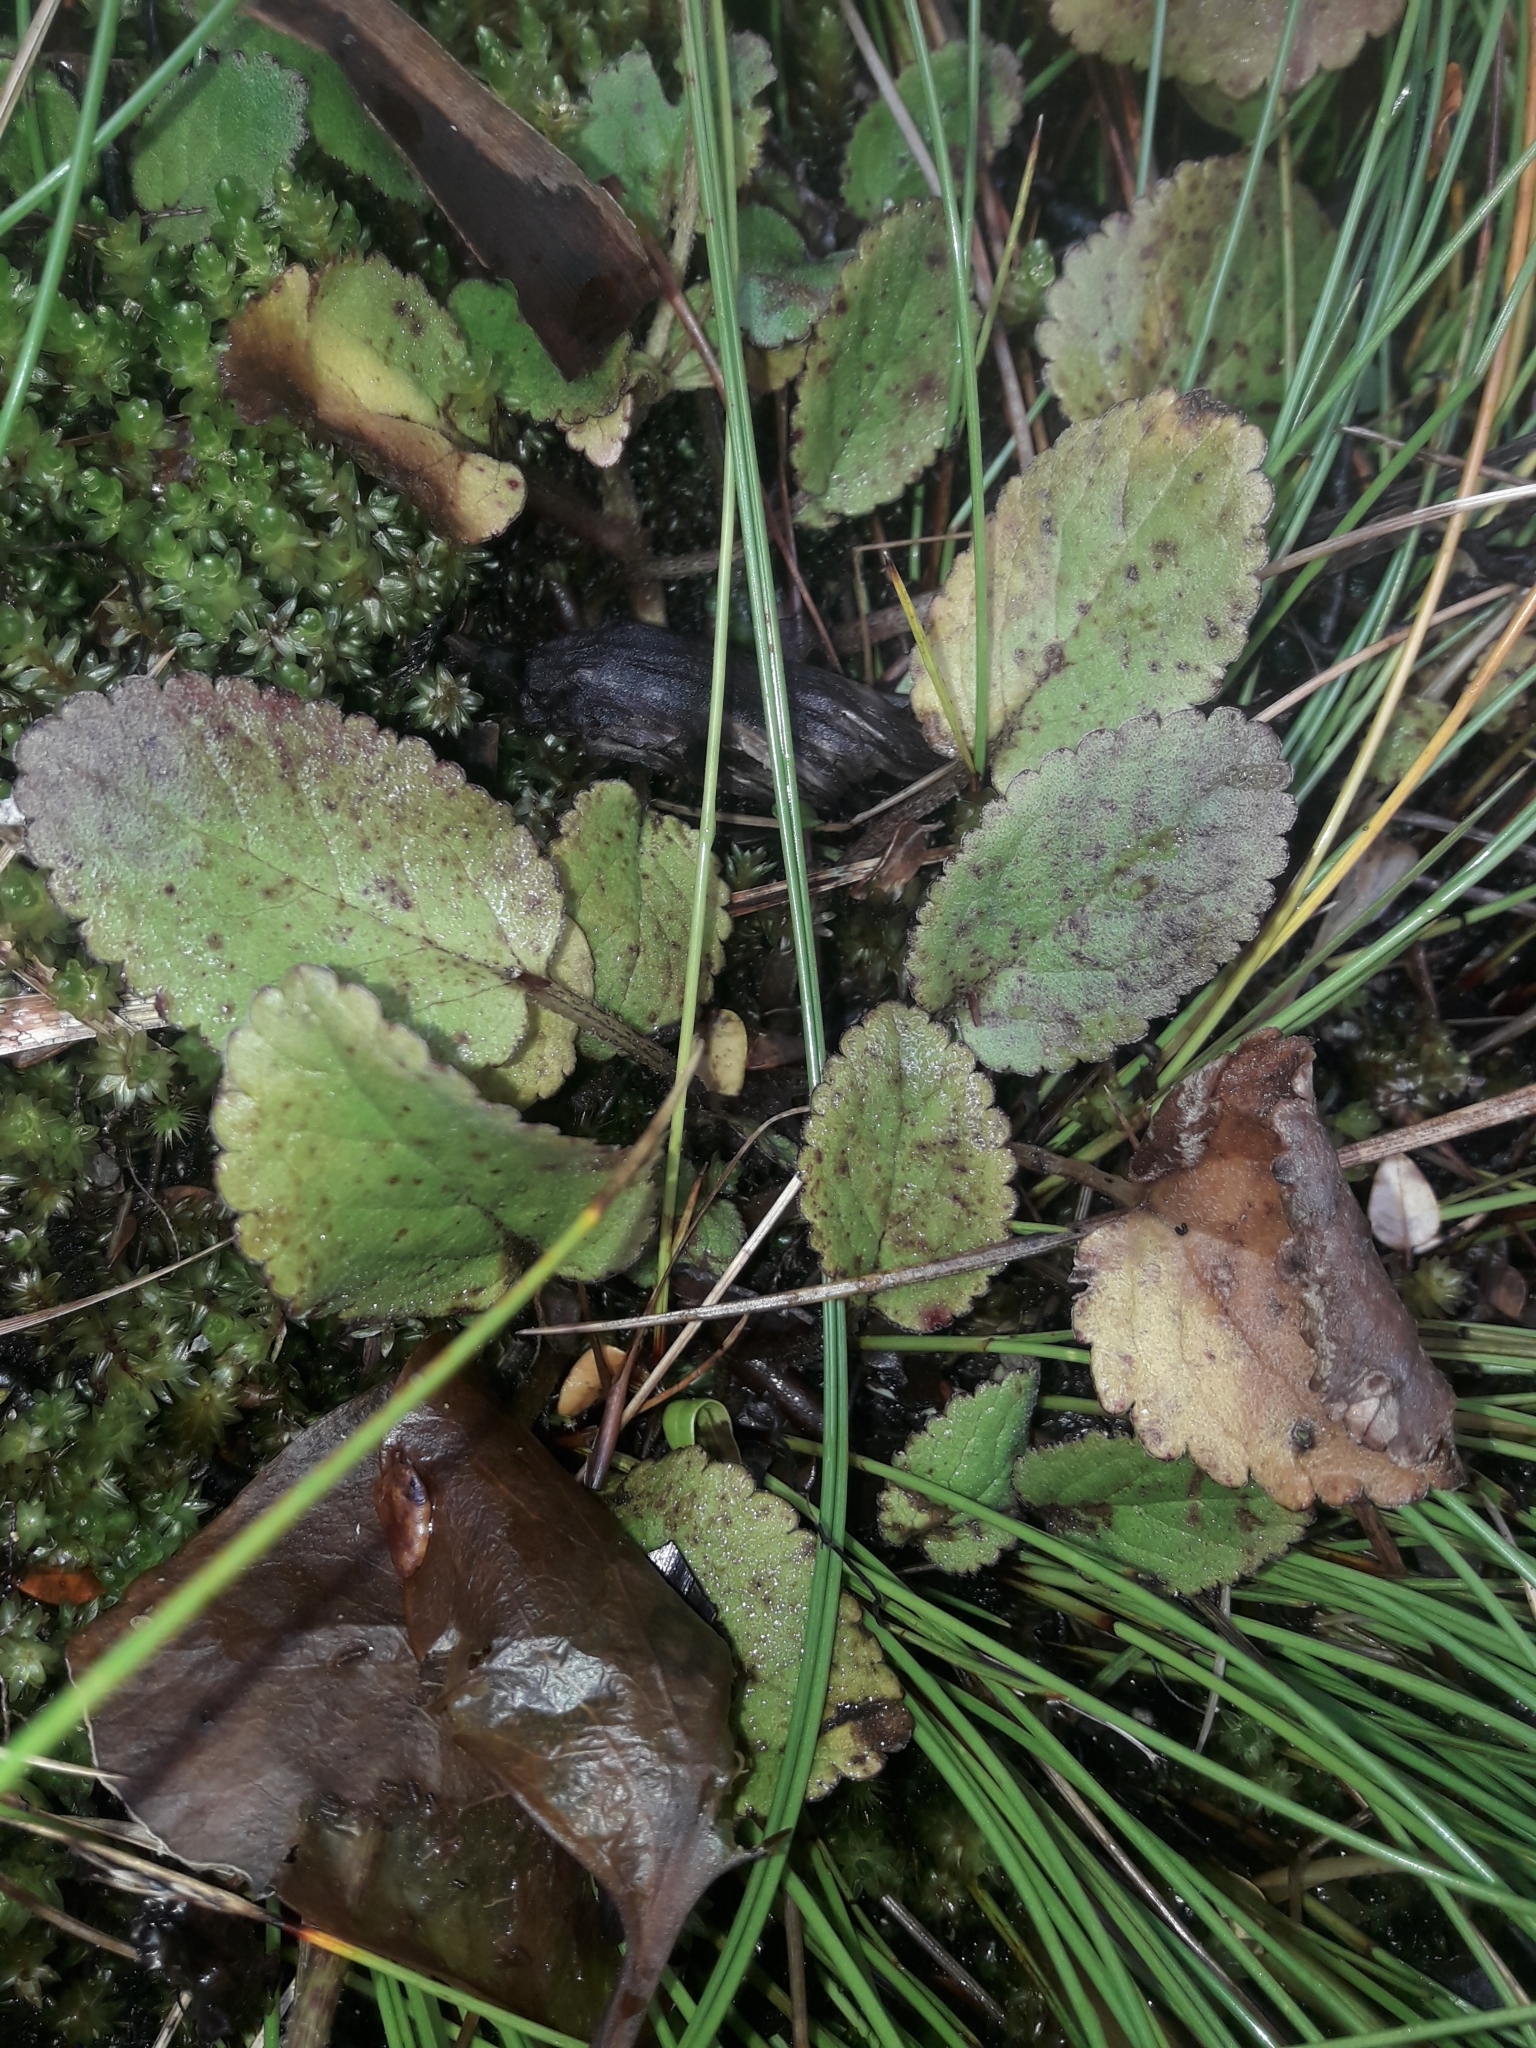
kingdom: Plantae
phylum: Tracheophyta
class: Magnoliopsida
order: Lamiales
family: Plantaginaceae
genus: Ourisia
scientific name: Ourisia macrophylla
